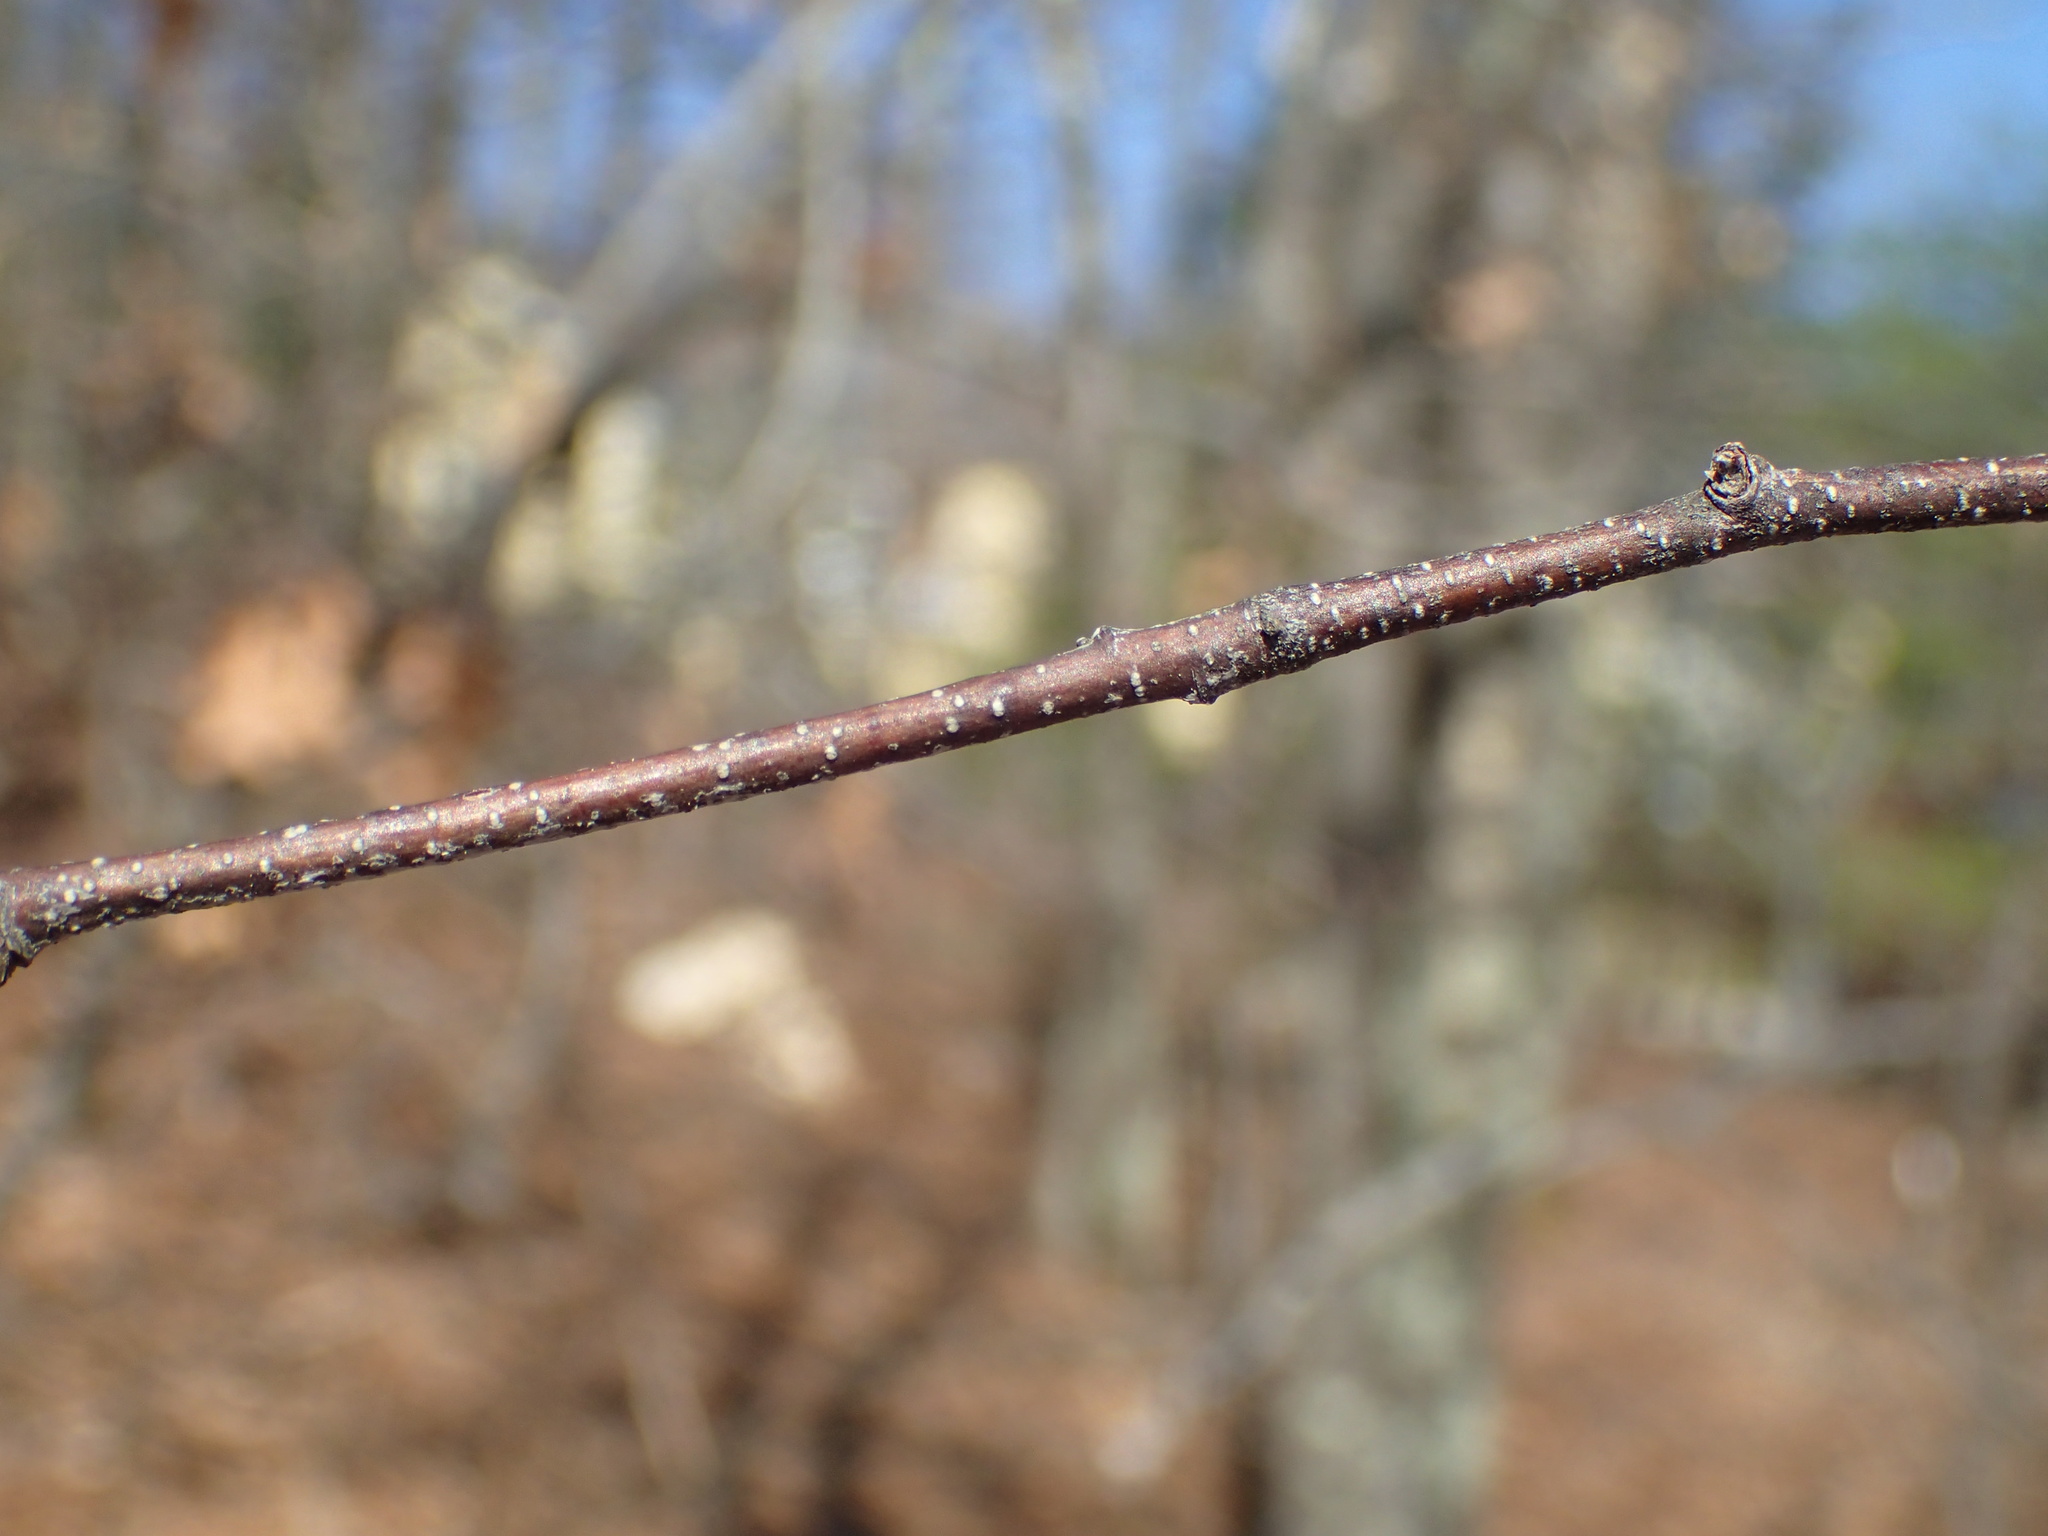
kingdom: Plantae
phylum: Tracheophyta
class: Magnoliopsida
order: Fagales
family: Betulaceae
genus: Betula
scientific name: Betula populifolia
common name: Fire birch
